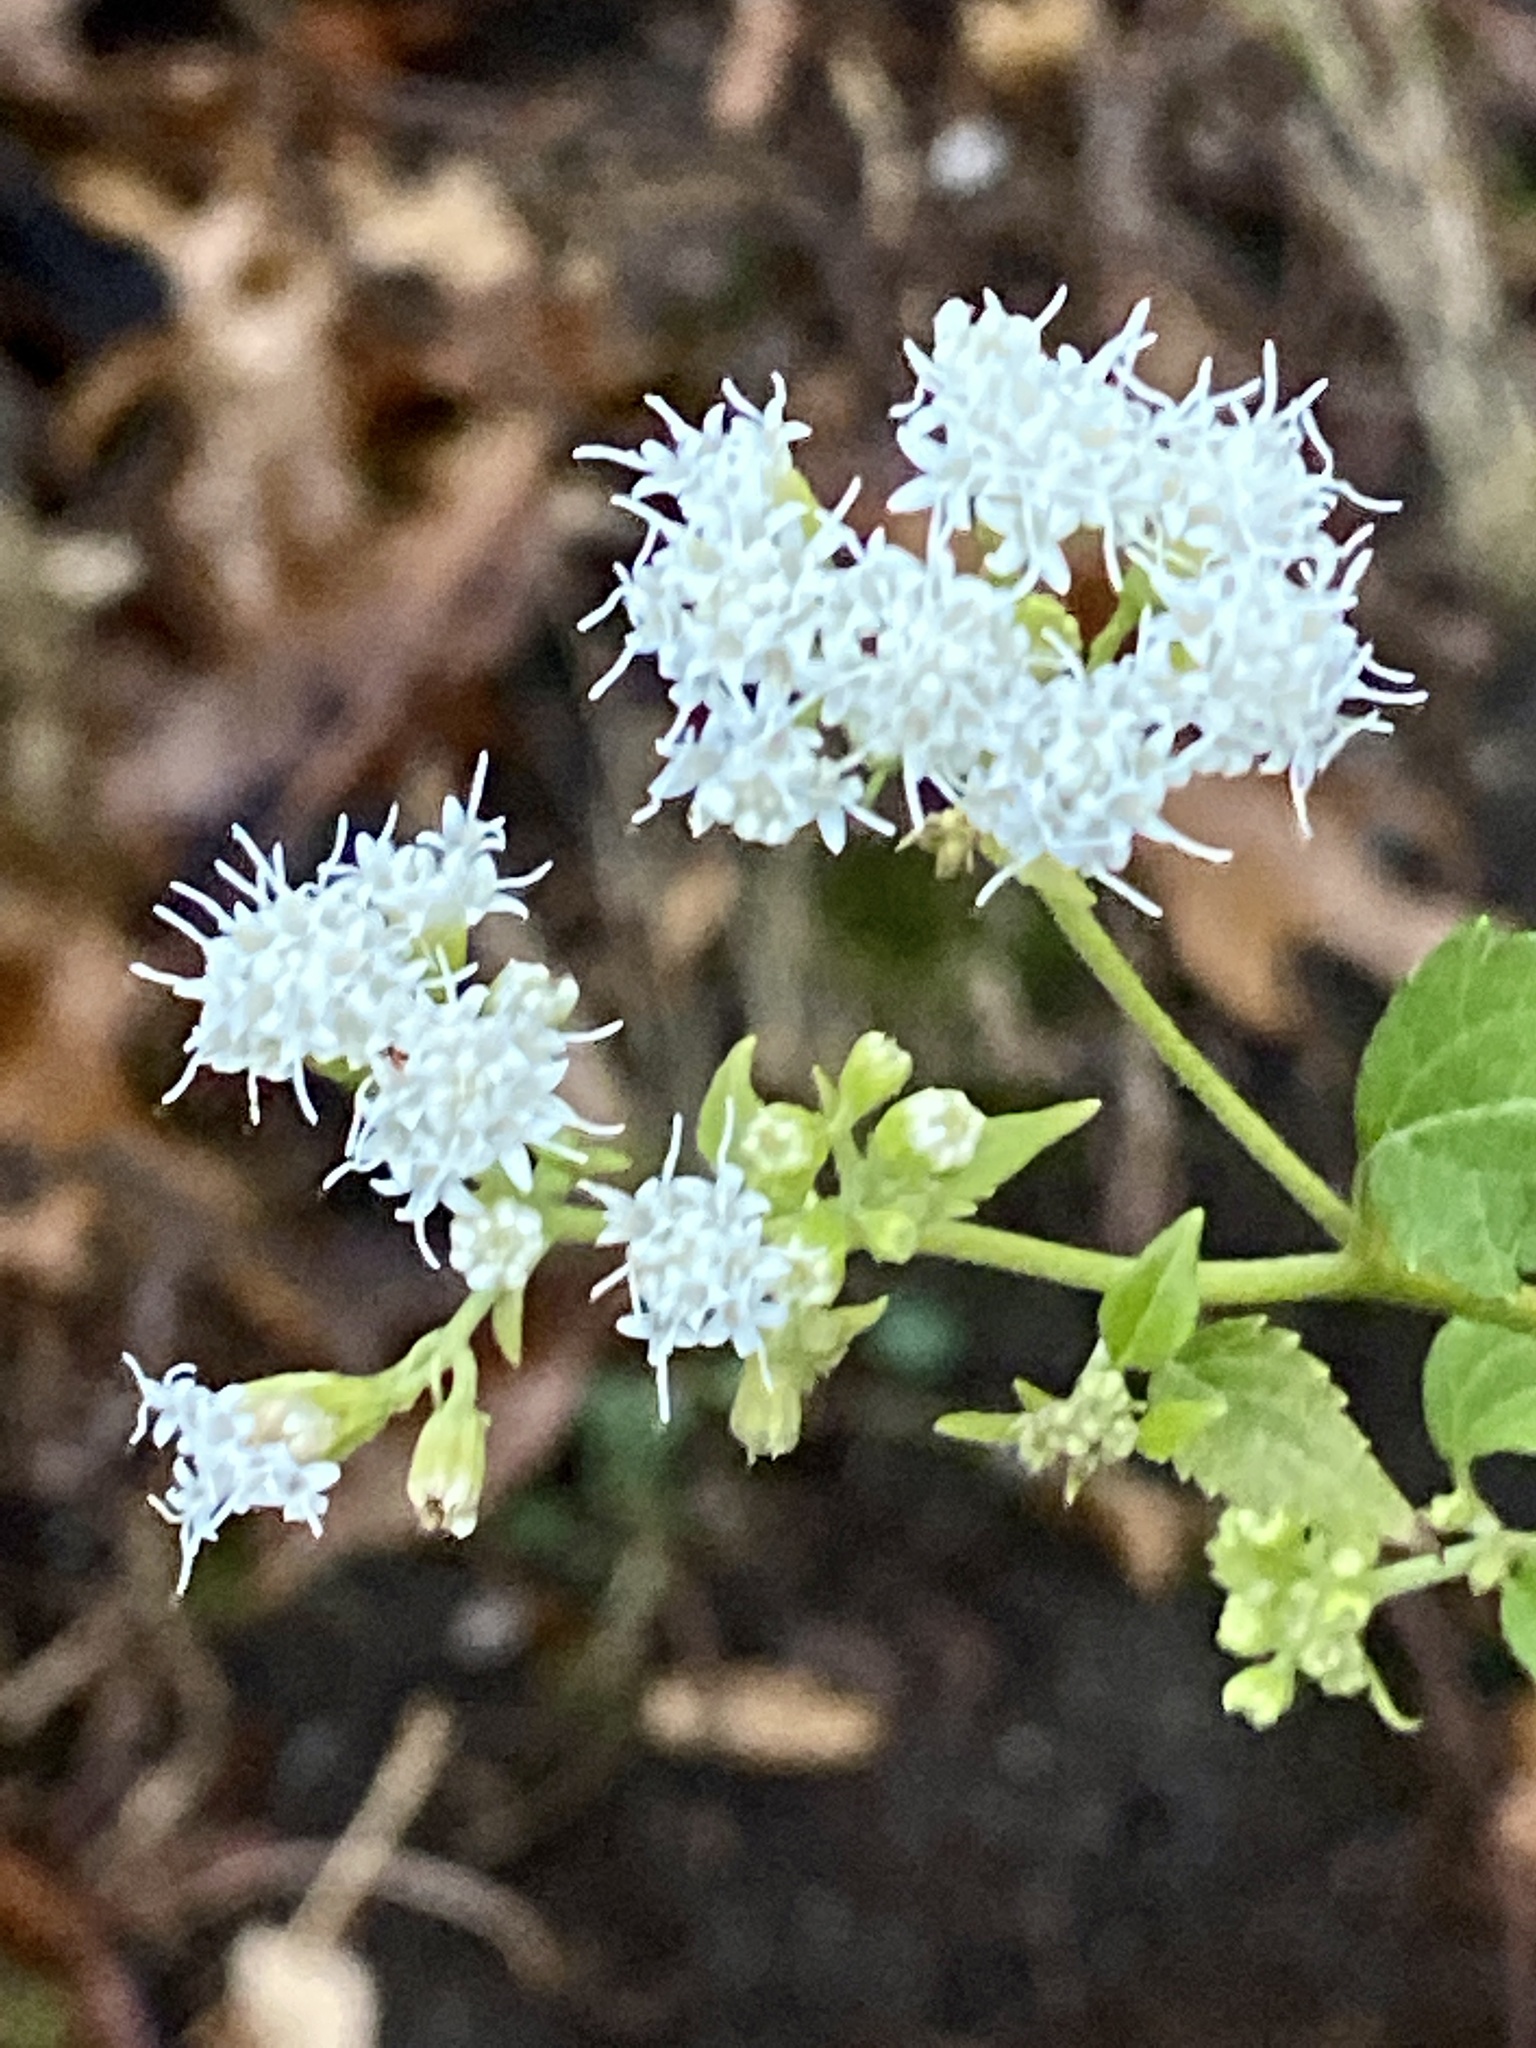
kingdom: Plantae
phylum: Tracheophyta
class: Magnoliopsida
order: Asterales
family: Asteraceae
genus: Ageratina
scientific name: Ageratina altissima
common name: White snakeroot
